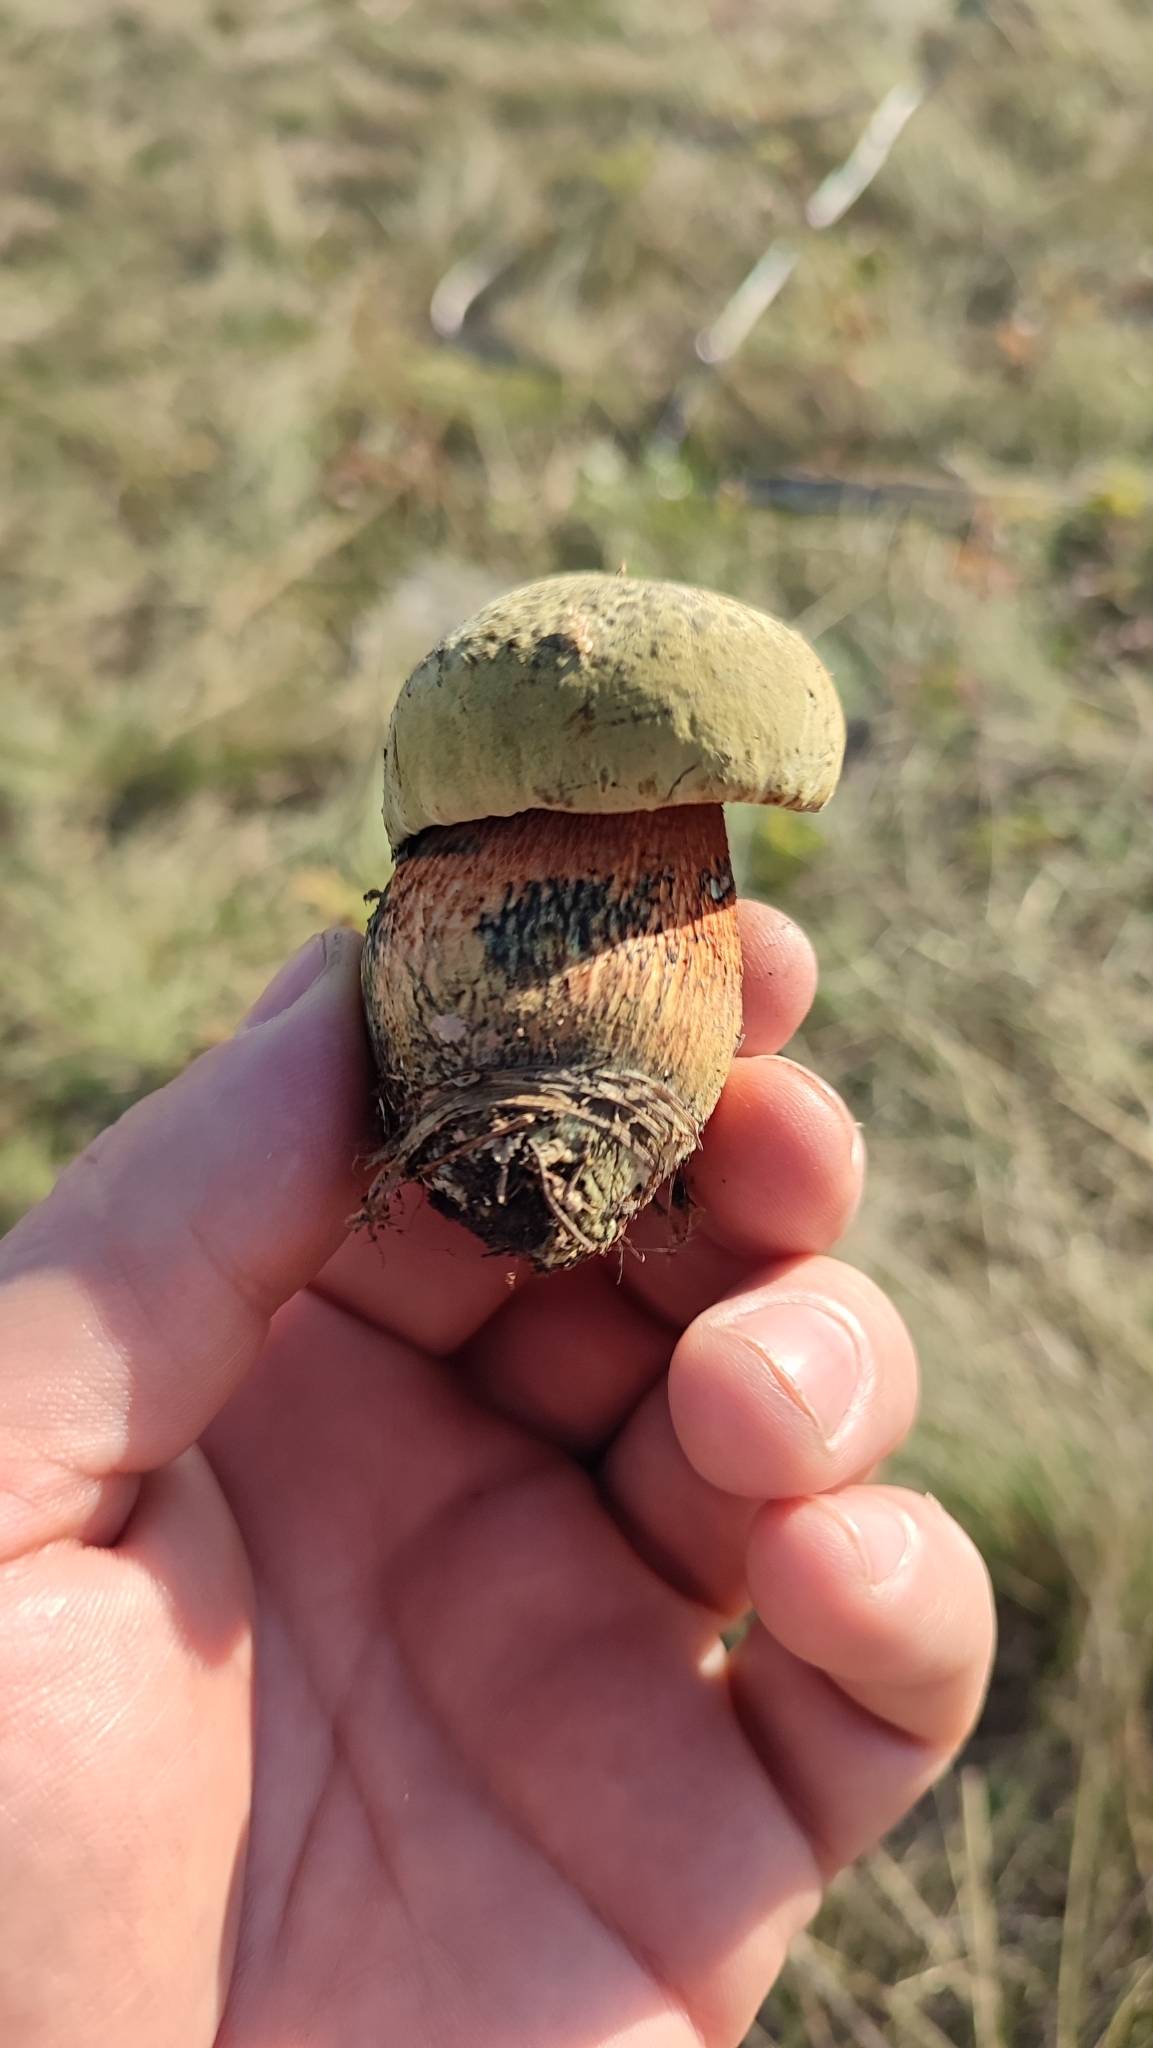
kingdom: Fungi
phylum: Basidiomycota
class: Agaricomycetes
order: Boletales
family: Boletaceae
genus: Suillellus
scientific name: Suillellus luridus
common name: Lurid bolete
